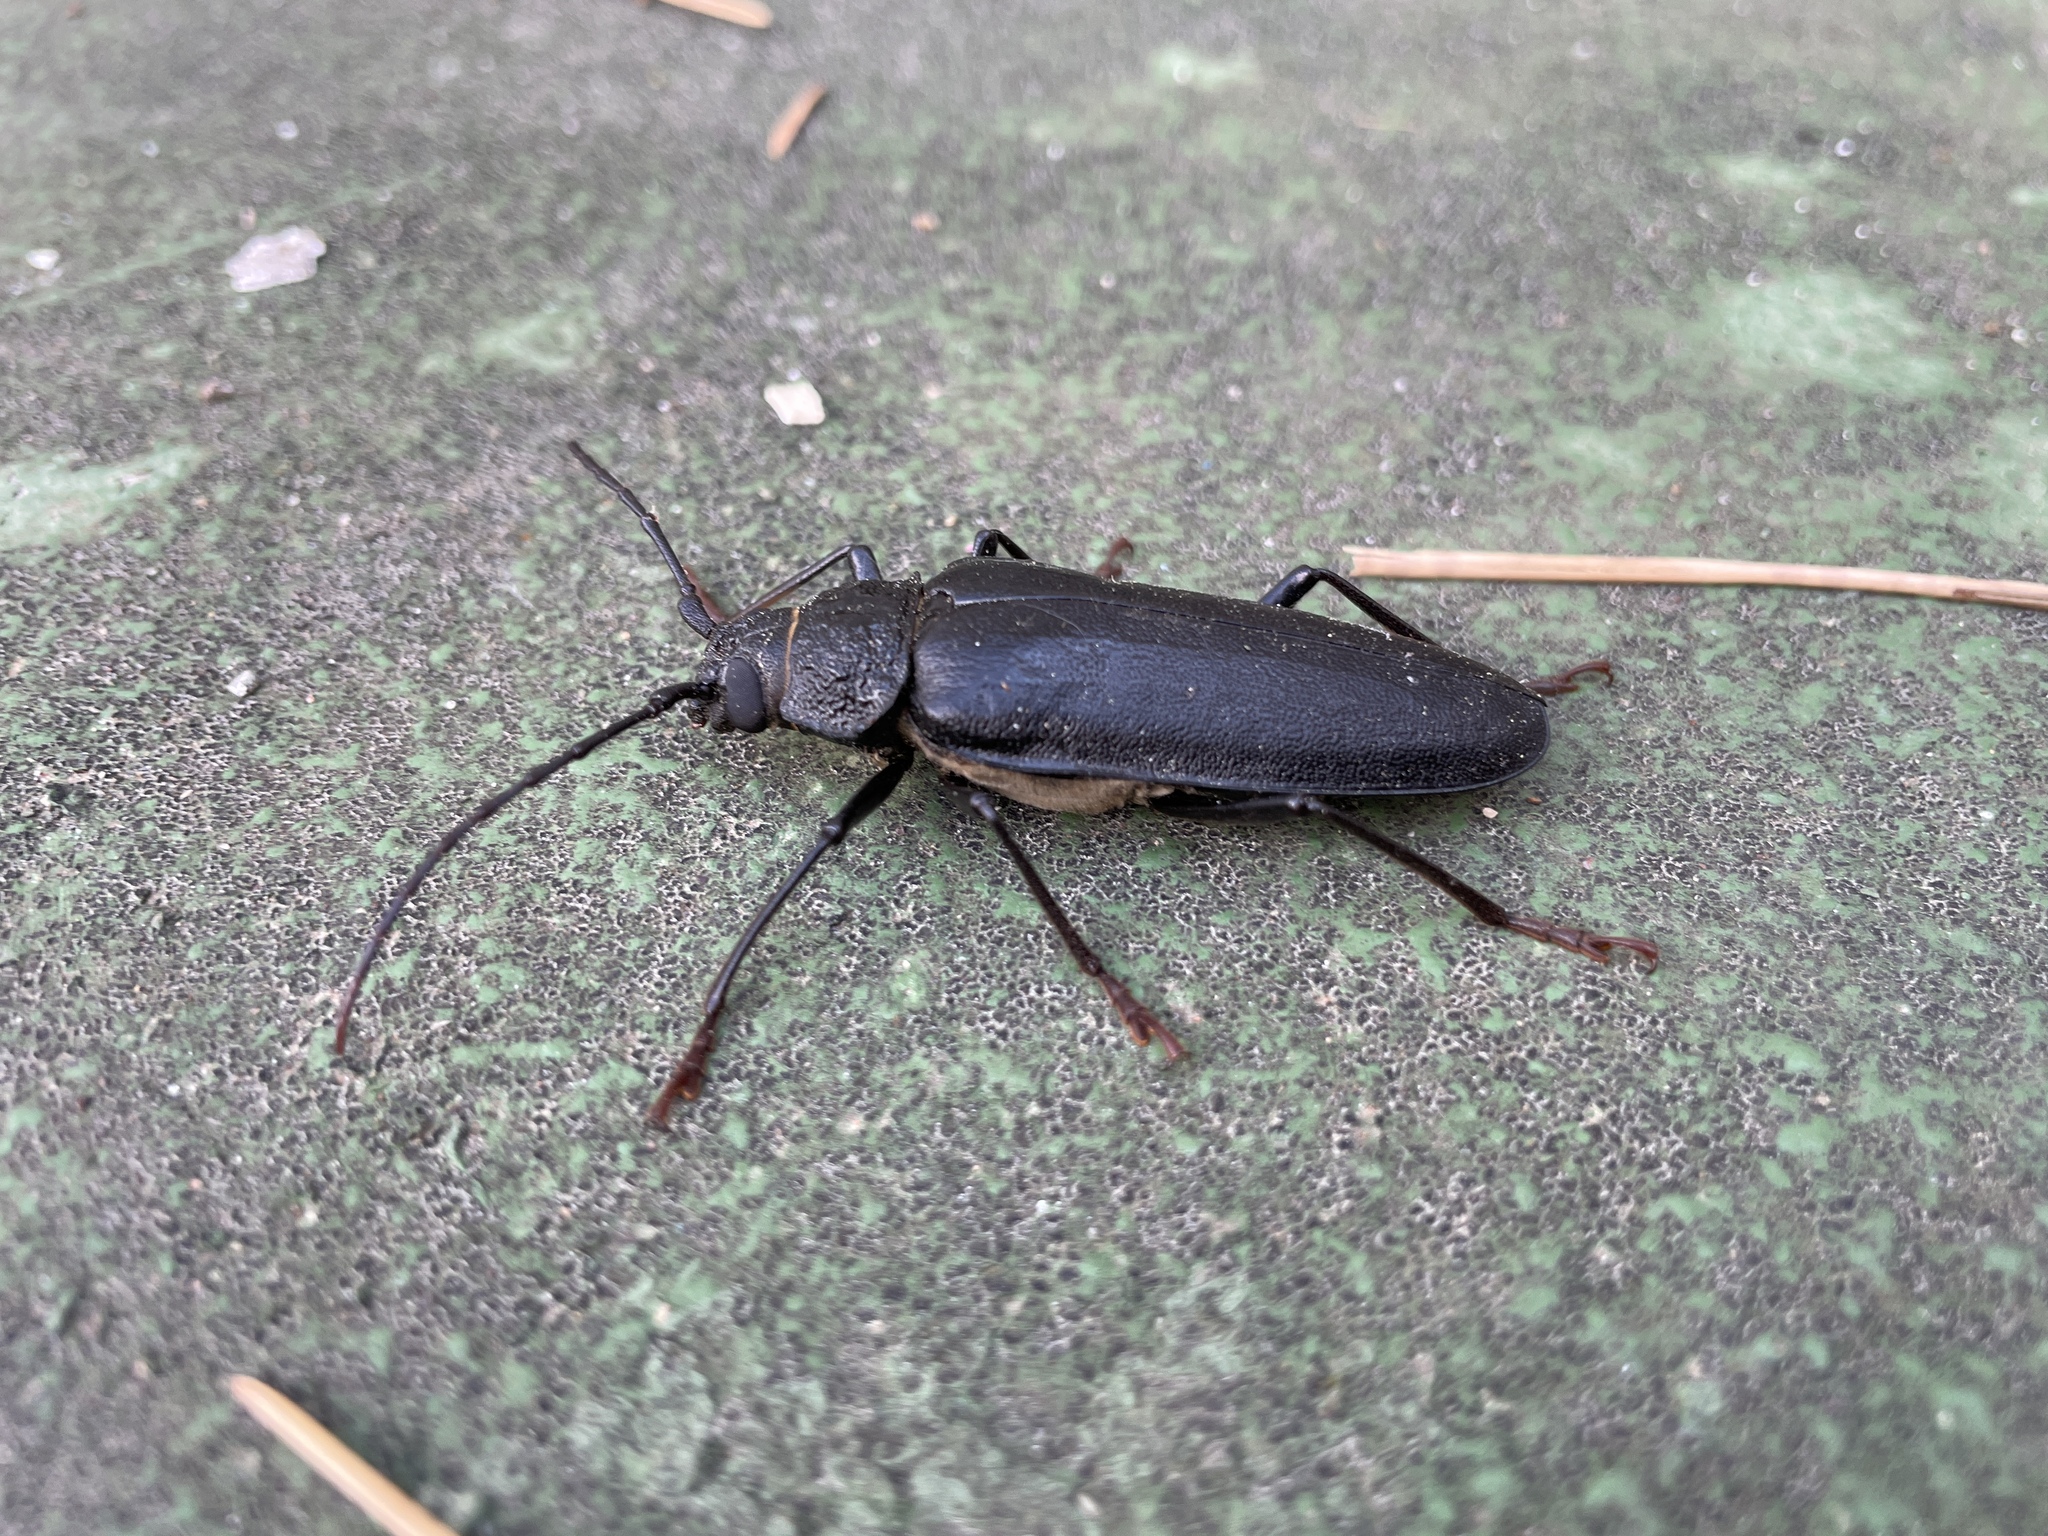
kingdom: Animalia
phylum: Arthropoda
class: Insecta
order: Coleoptera
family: Cerambycidae
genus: Ergates
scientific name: Ergates faber
